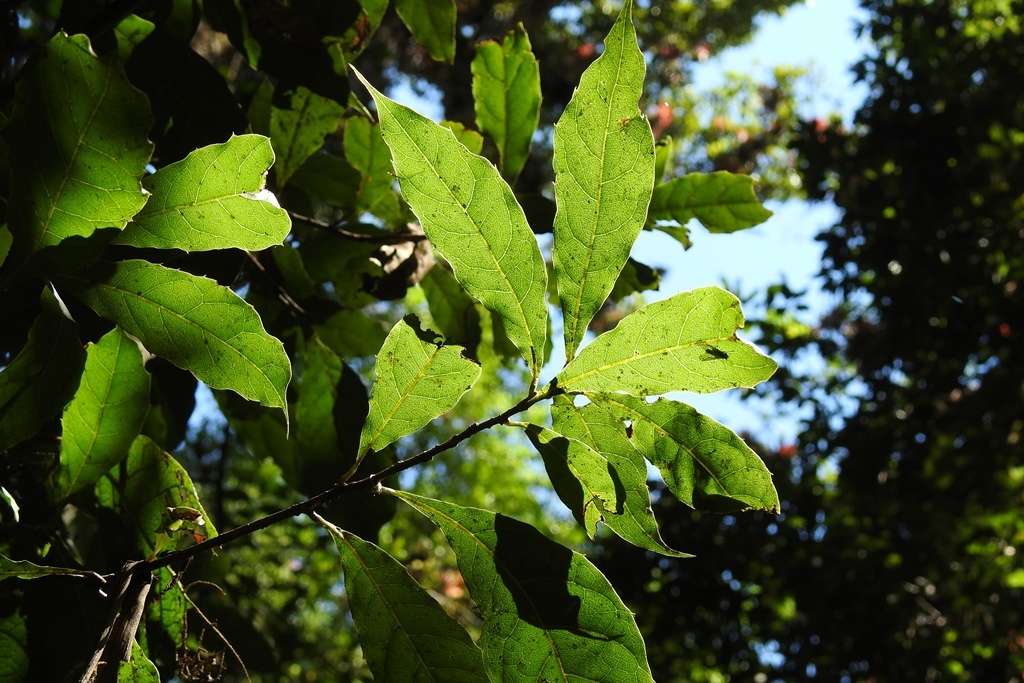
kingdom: Plantae
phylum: Tracheophyta
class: Magnoliopsida
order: Proteales
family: Sabiaceae
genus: Meliosma
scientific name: Meliosma dentata
